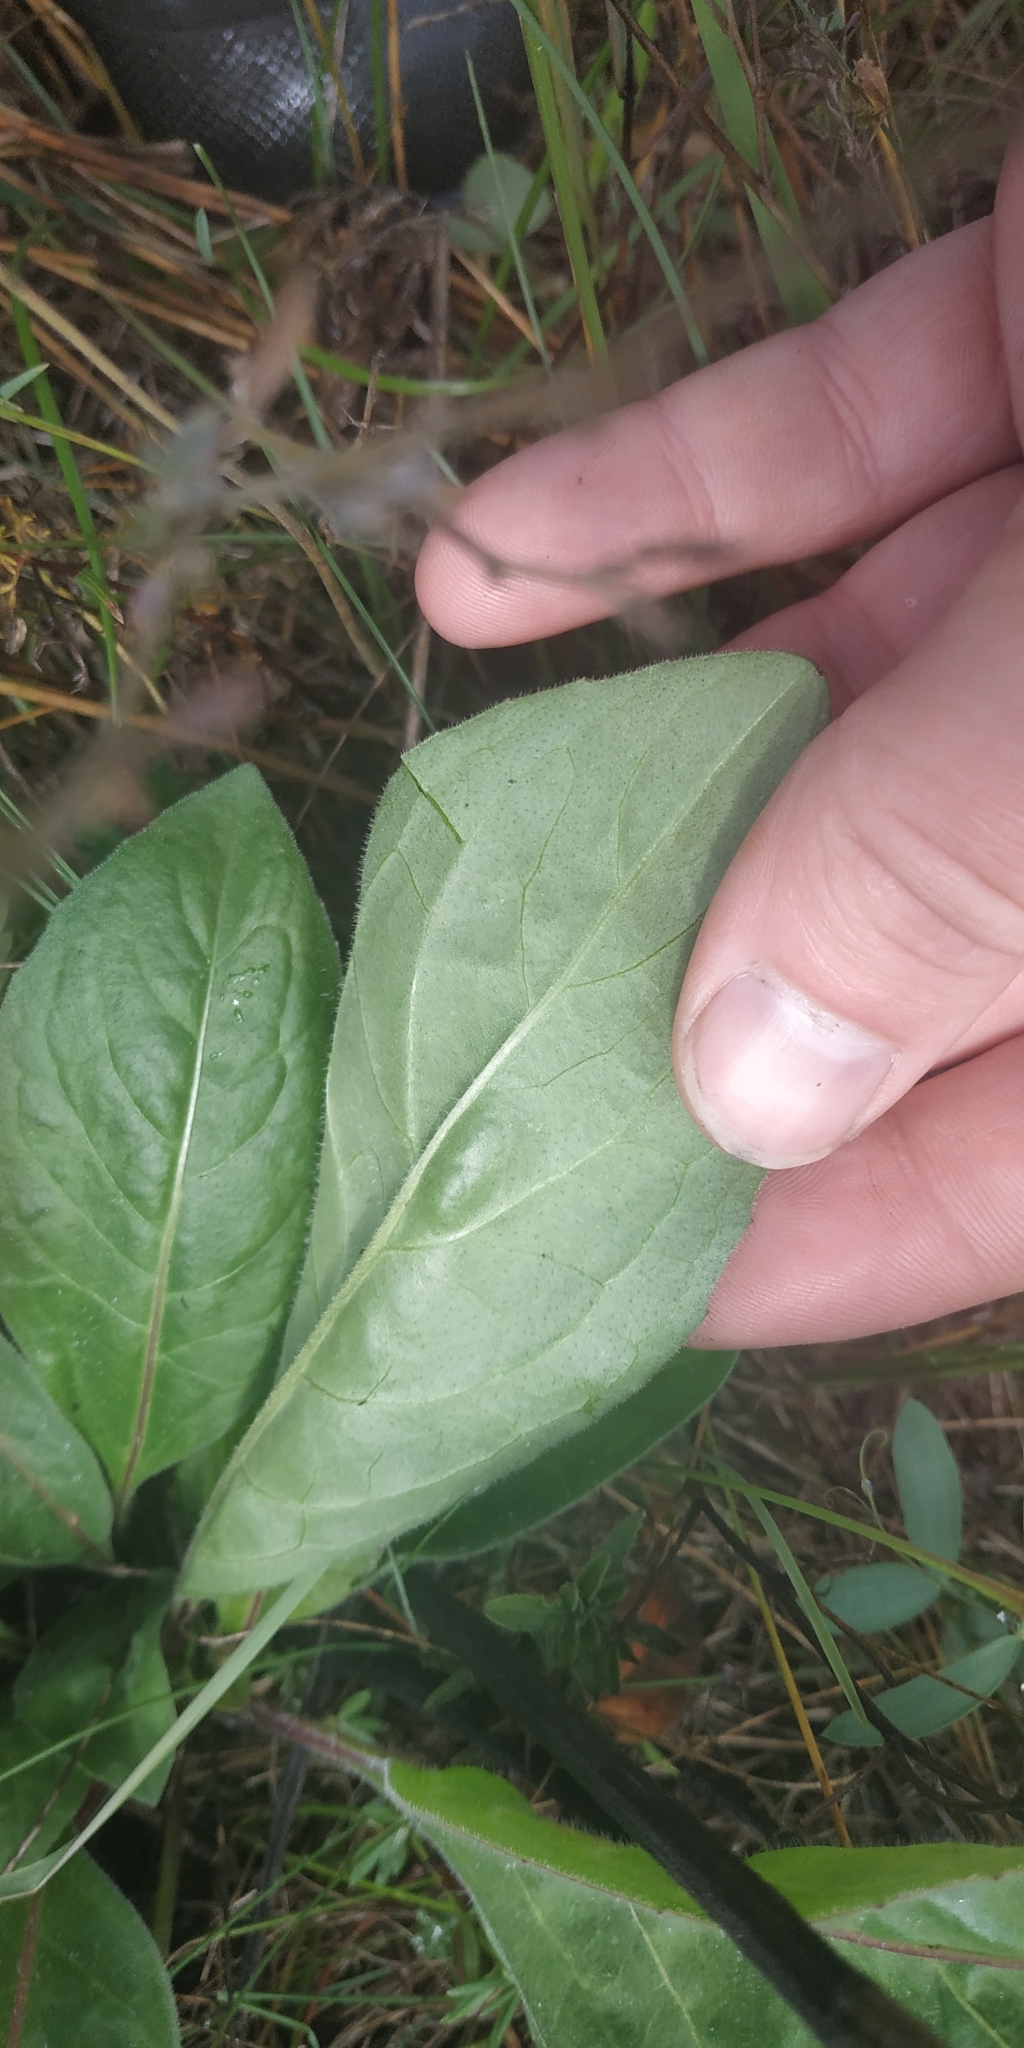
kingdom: Plantae
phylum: Tracheophyta
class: Magnoliopsida
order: Boraginales
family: Boraginaceae
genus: Cynoglossum
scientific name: Cynoglossum officinale
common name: Hound's-tongue
